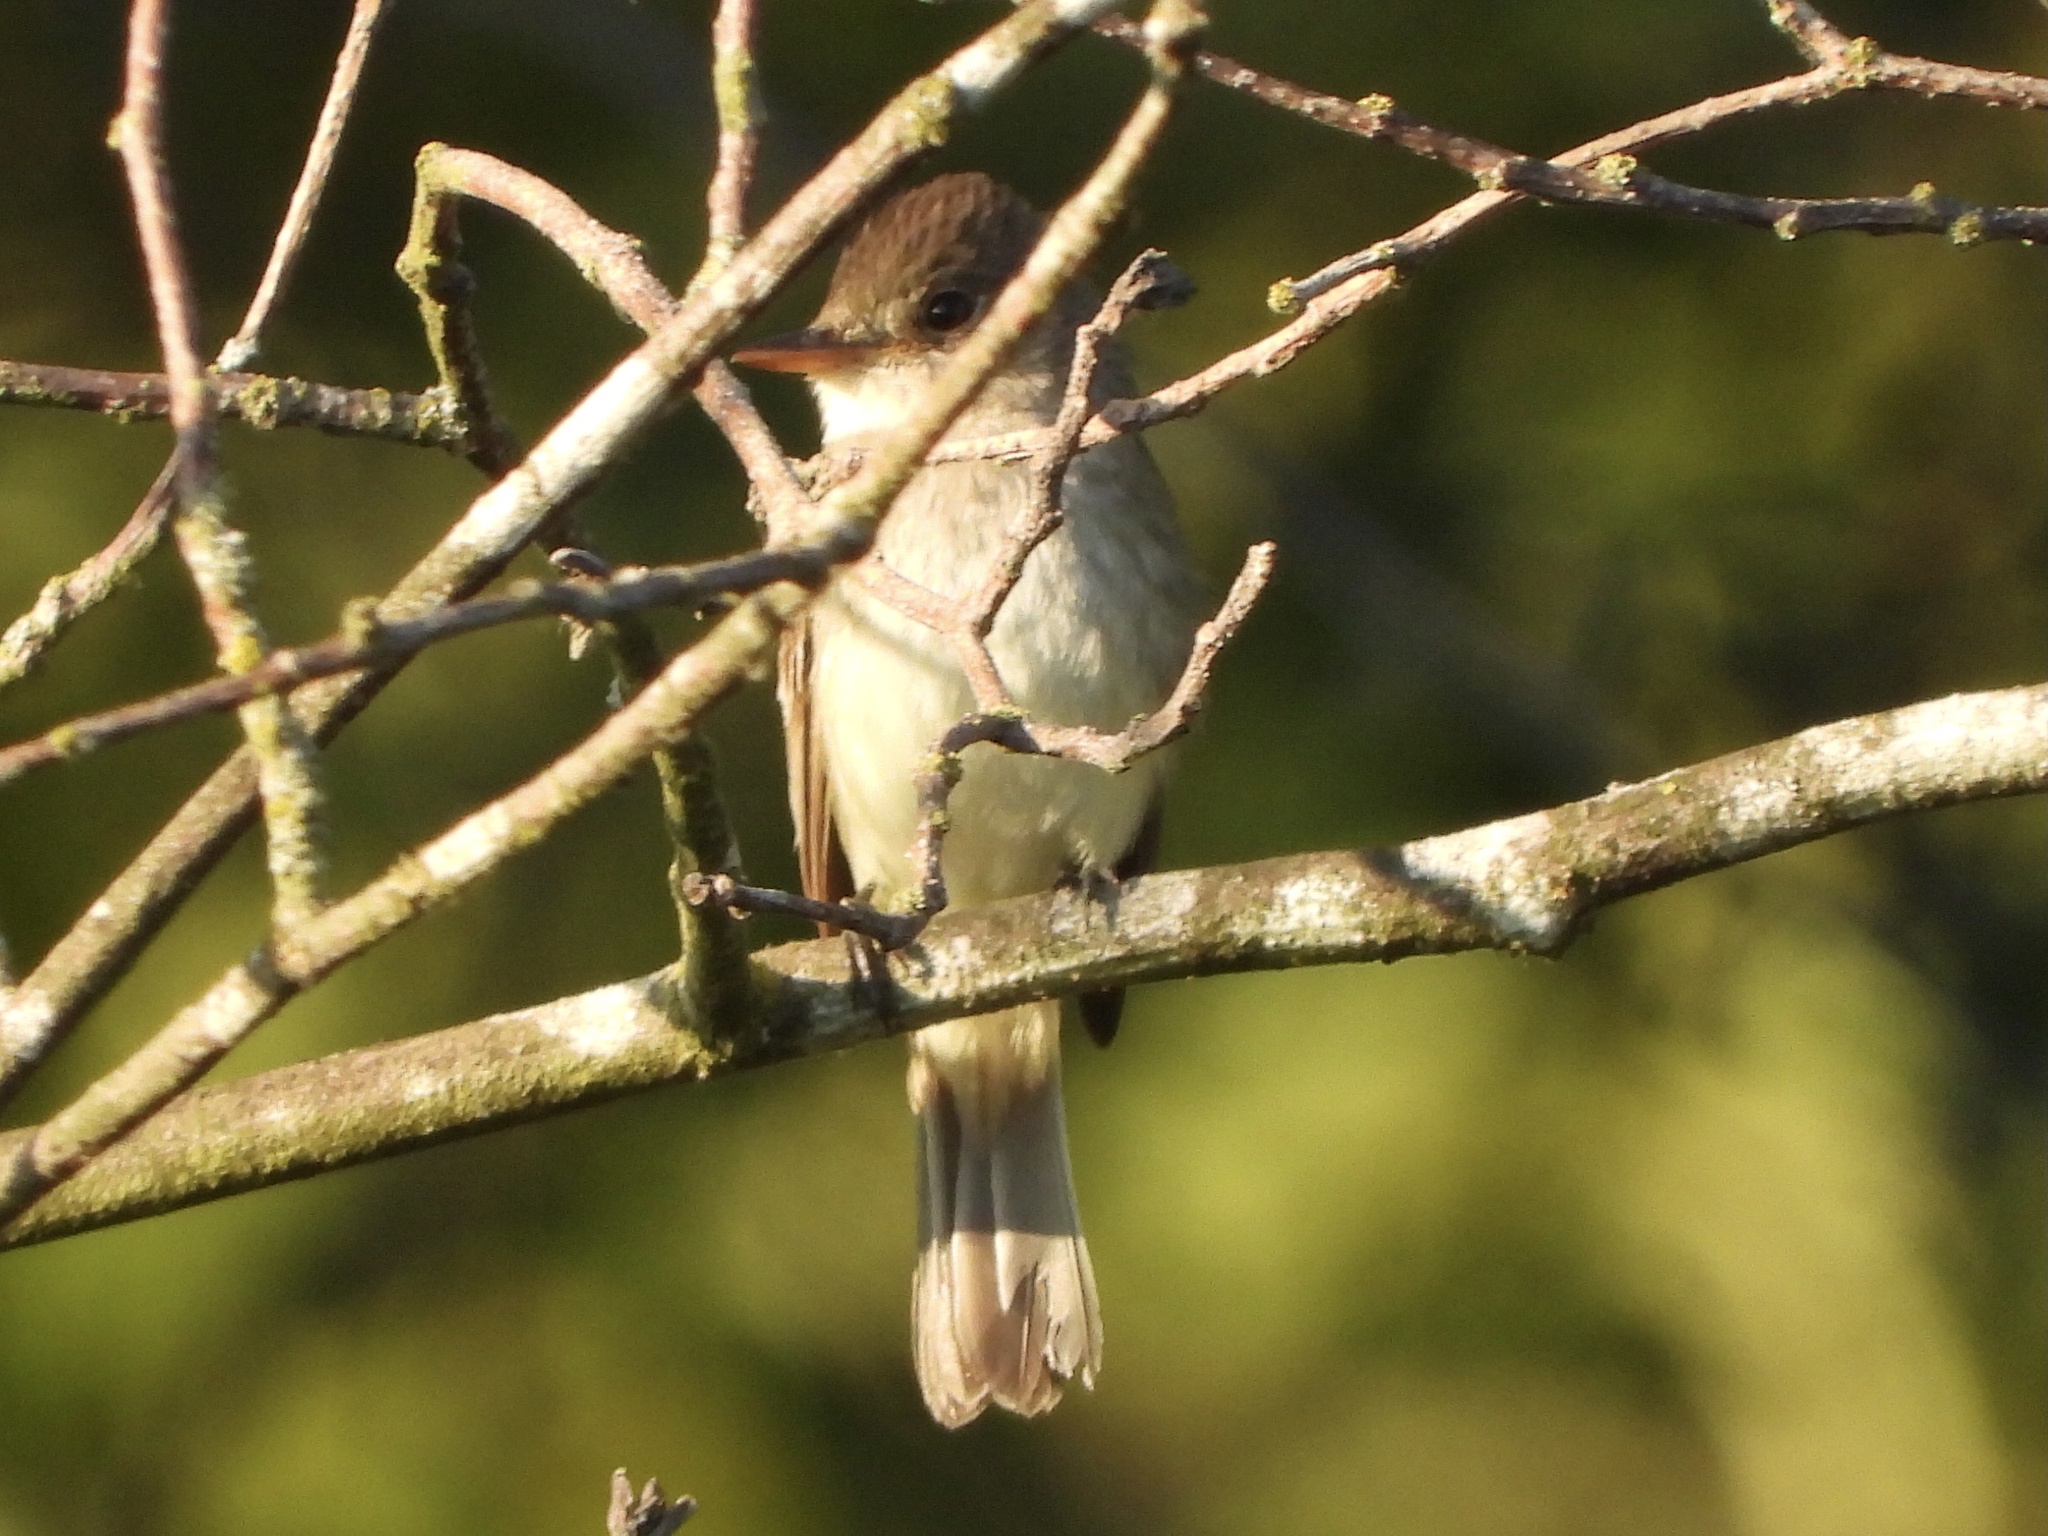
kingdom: Animalia
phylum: Chordata
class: Aves
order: Passeriformes
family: Tyrannidae
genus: Empidonax
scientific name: Empidonax traillii
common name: Willow flycatcher
